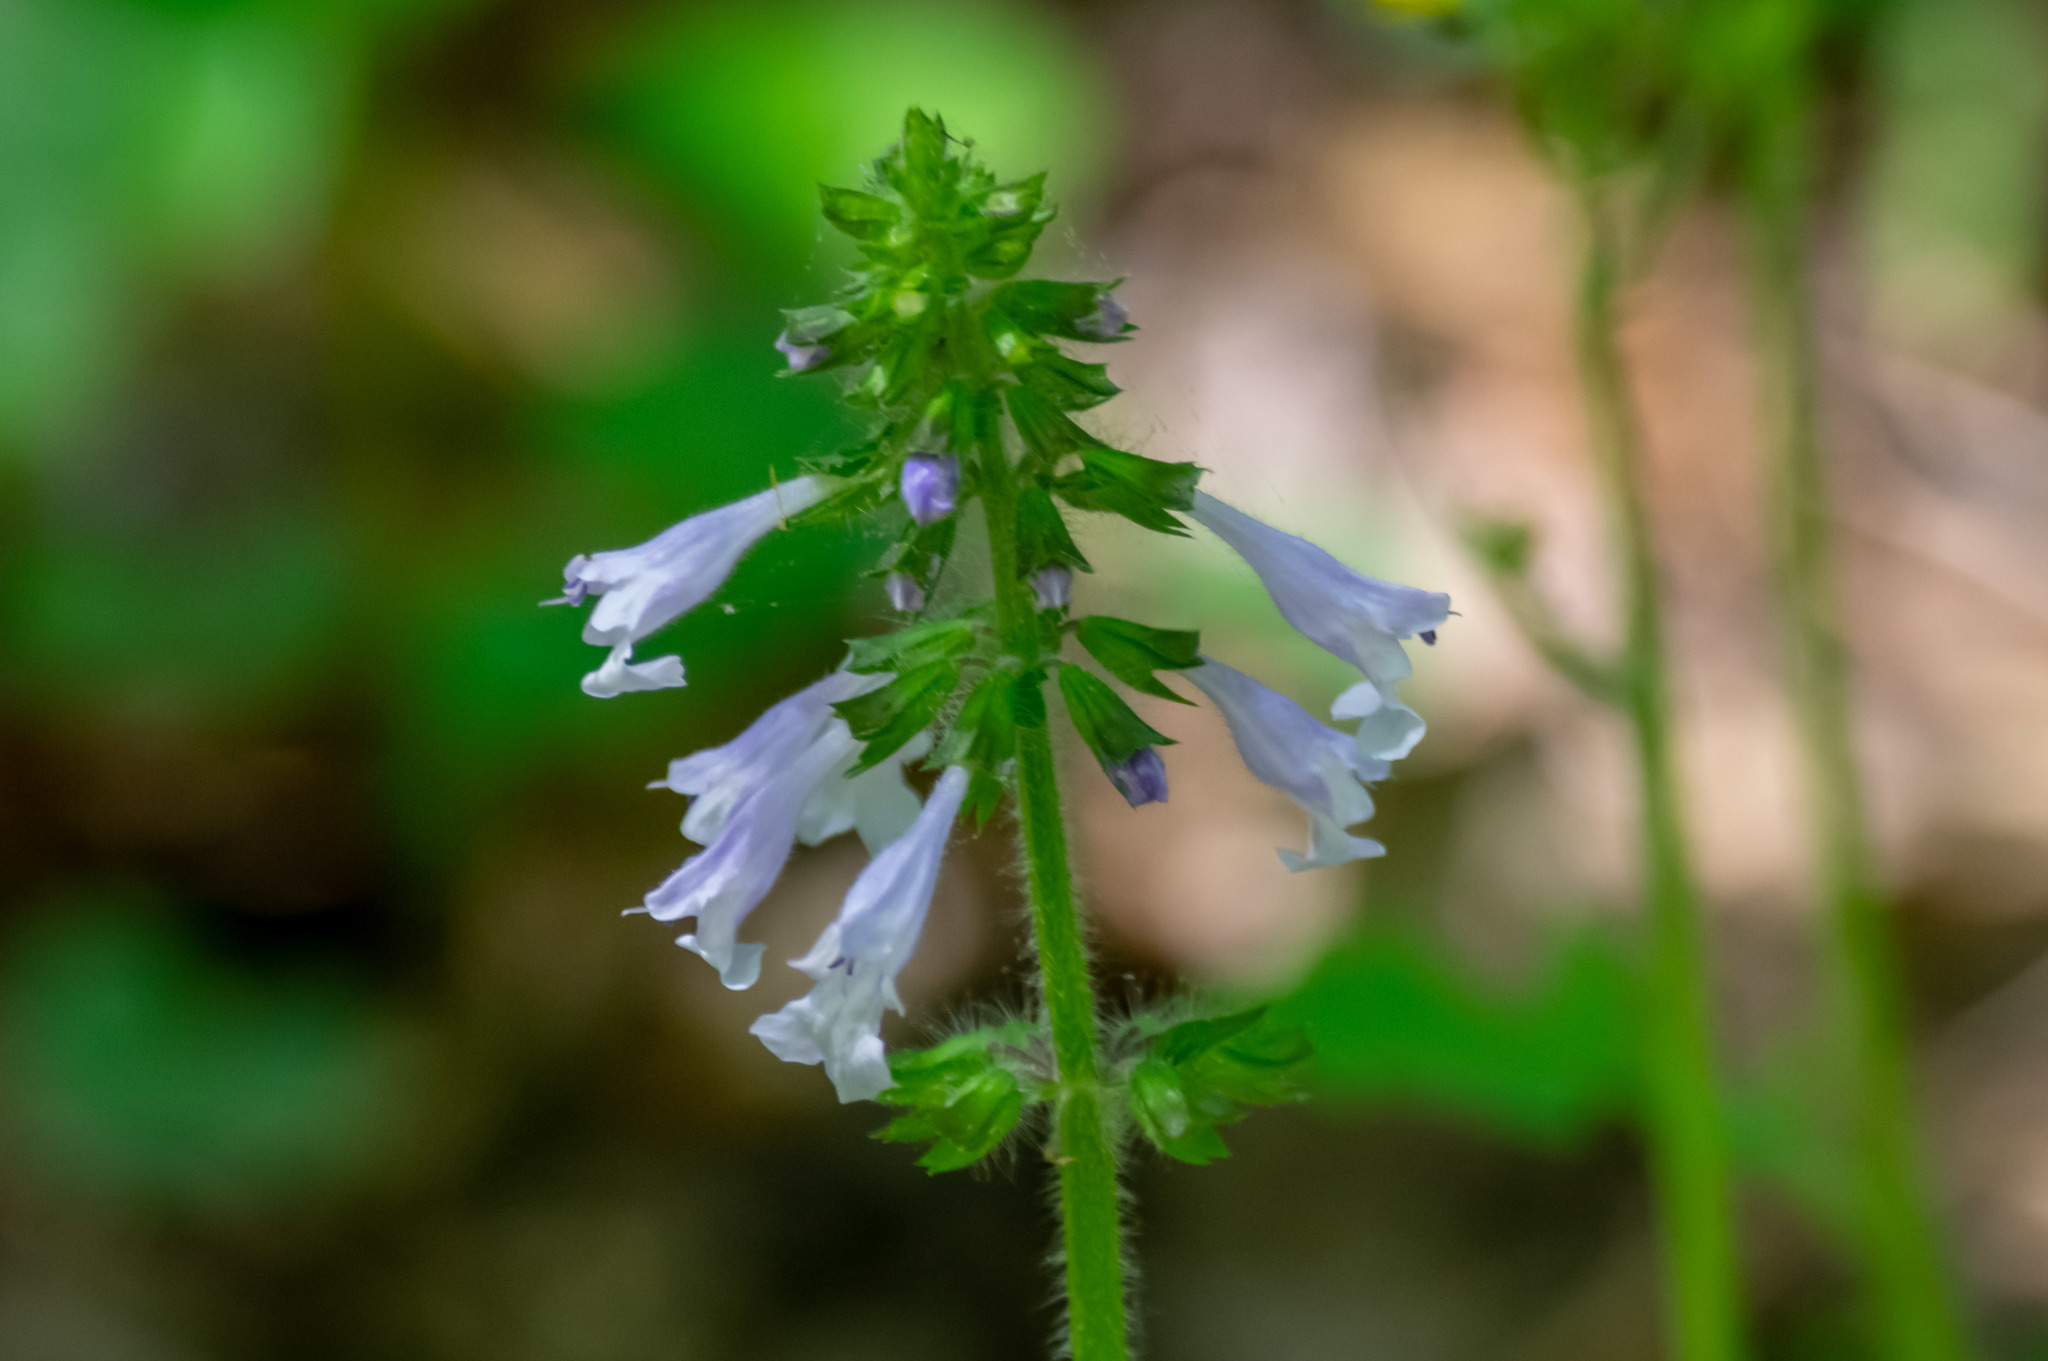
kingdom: Plantae
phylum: Tracheophyta
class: Magnoliopsida
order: Lamiales
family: Lamiaceae
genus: Salvia
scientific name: Salvia lyrata
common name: Cancerweed
